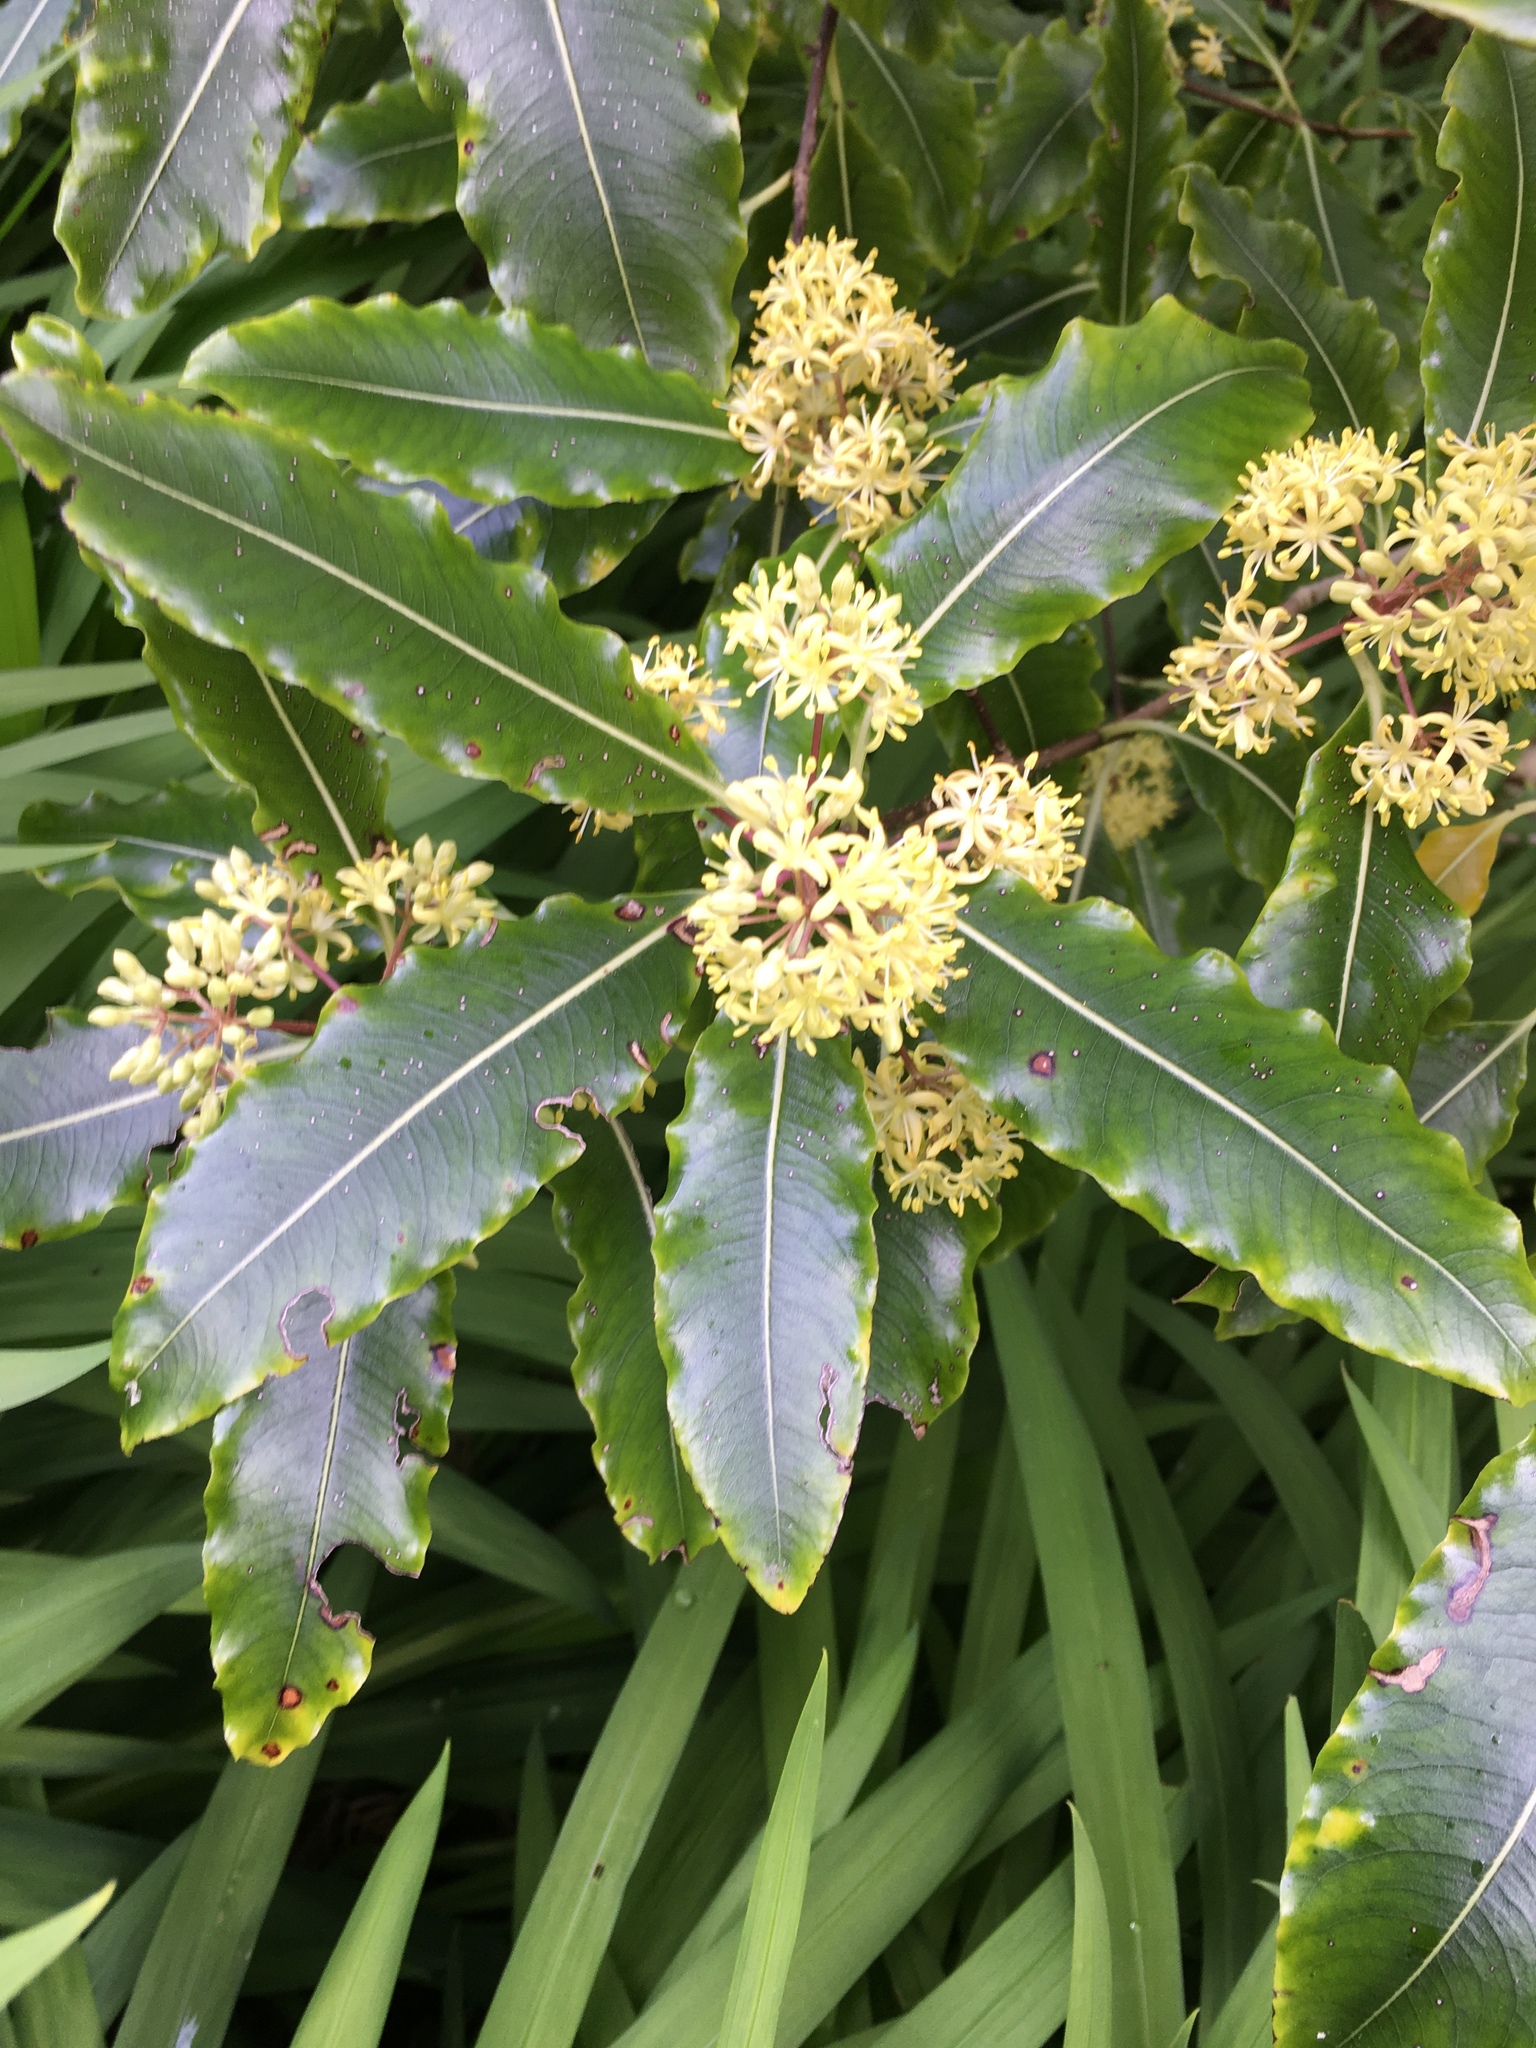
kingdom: Plantae
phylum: Tracheophyta
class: Magnoliopsida
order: Apiales
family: Pittosporaceae
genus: Pittosporum
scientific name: Pittosporum eugenioides
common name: Lemonwood
